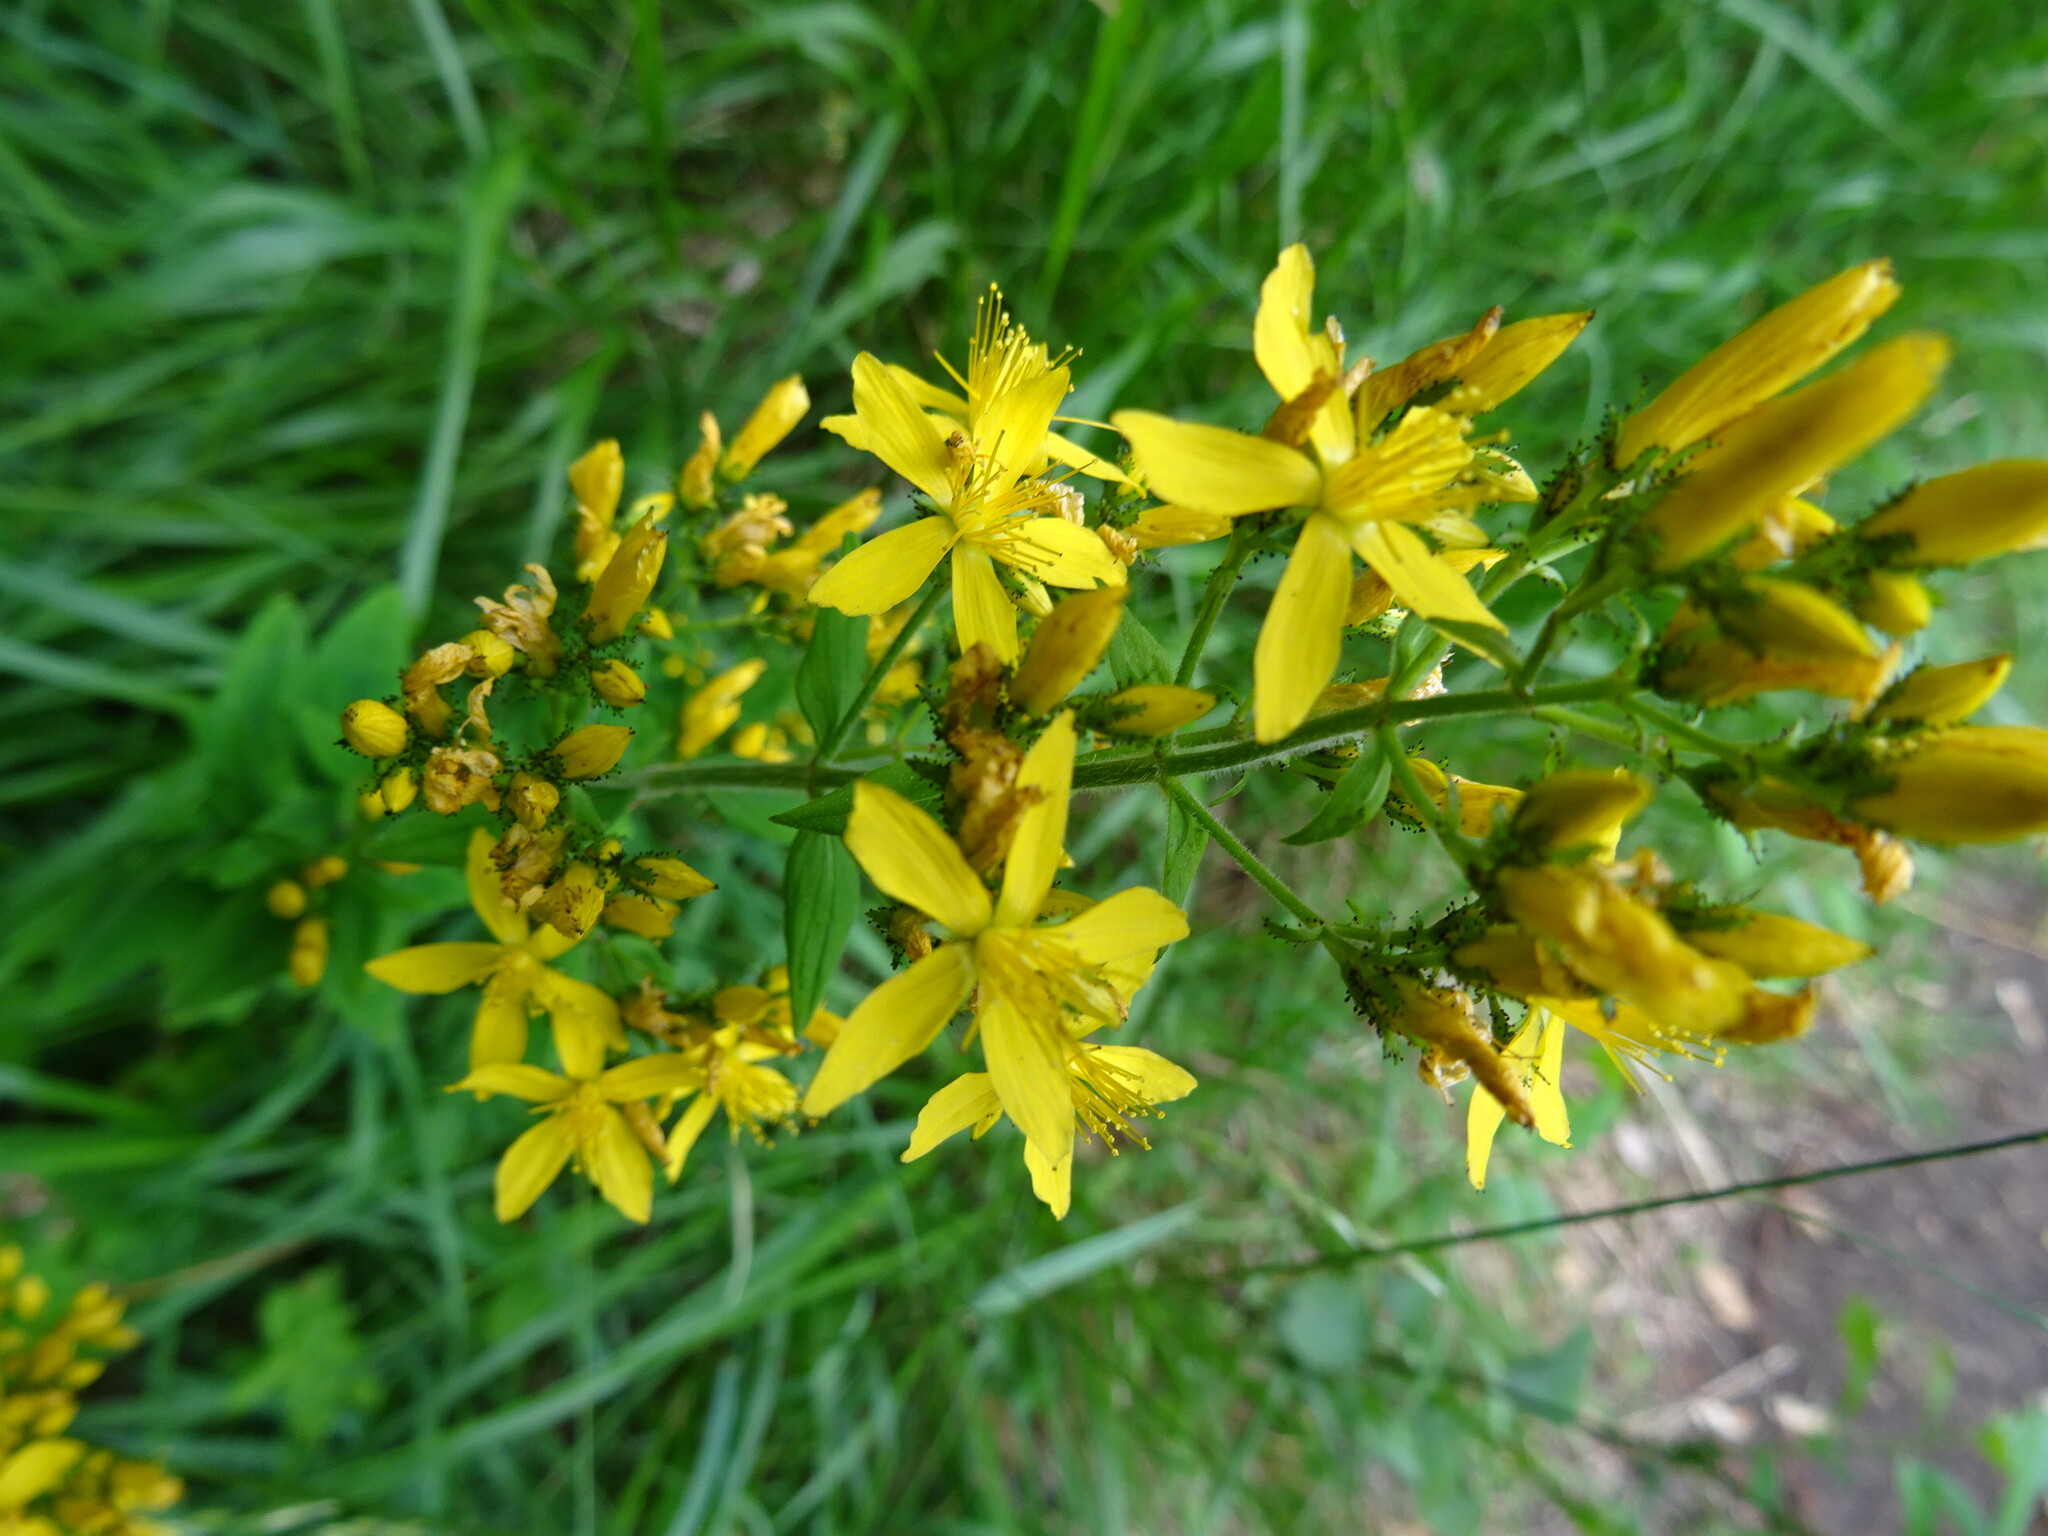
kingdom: Plantae
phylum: Tracheophyta
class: Magnoliopsida
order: Malpighiales
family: Hypericaceae
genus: Hypericum
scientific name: Hypericum hirsutum
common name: Hairy st. john's-wort
